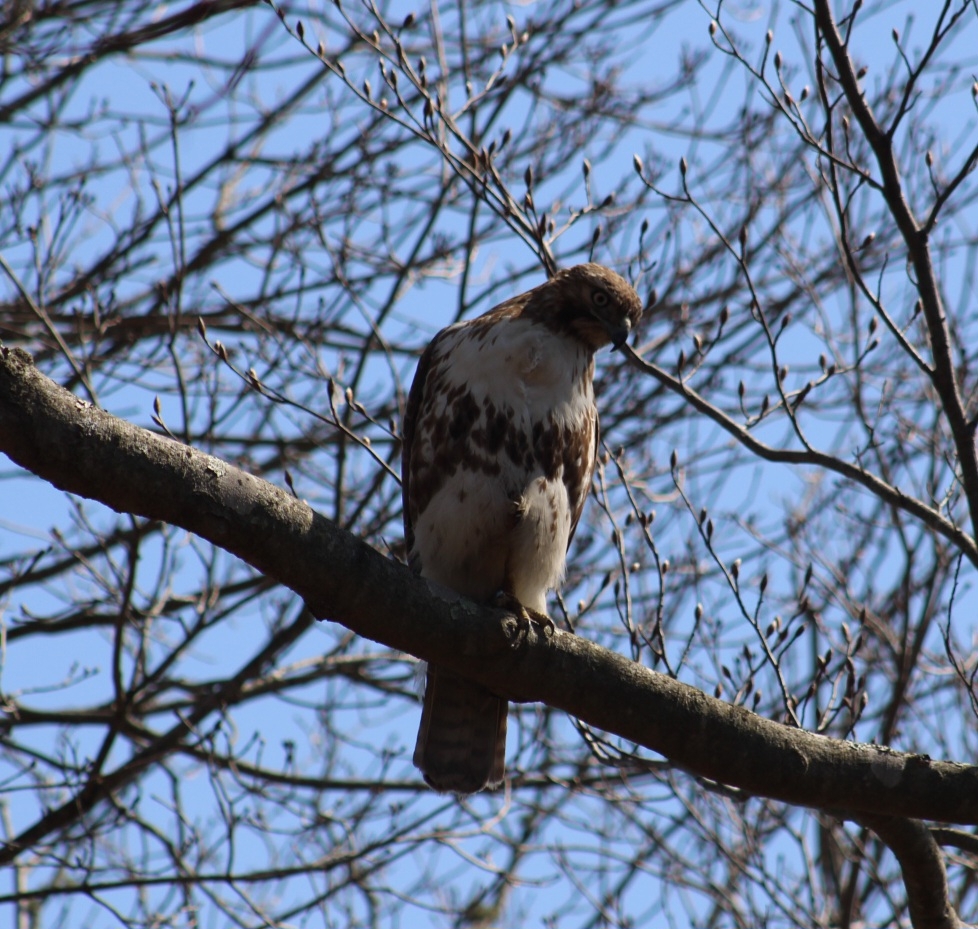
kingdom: Animalia
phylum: Chordata
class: Aves
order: Accipitriformes
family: Accipitridae
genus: Buteo
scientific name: Buteo jamaicensis
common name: Red-tailed hawk
